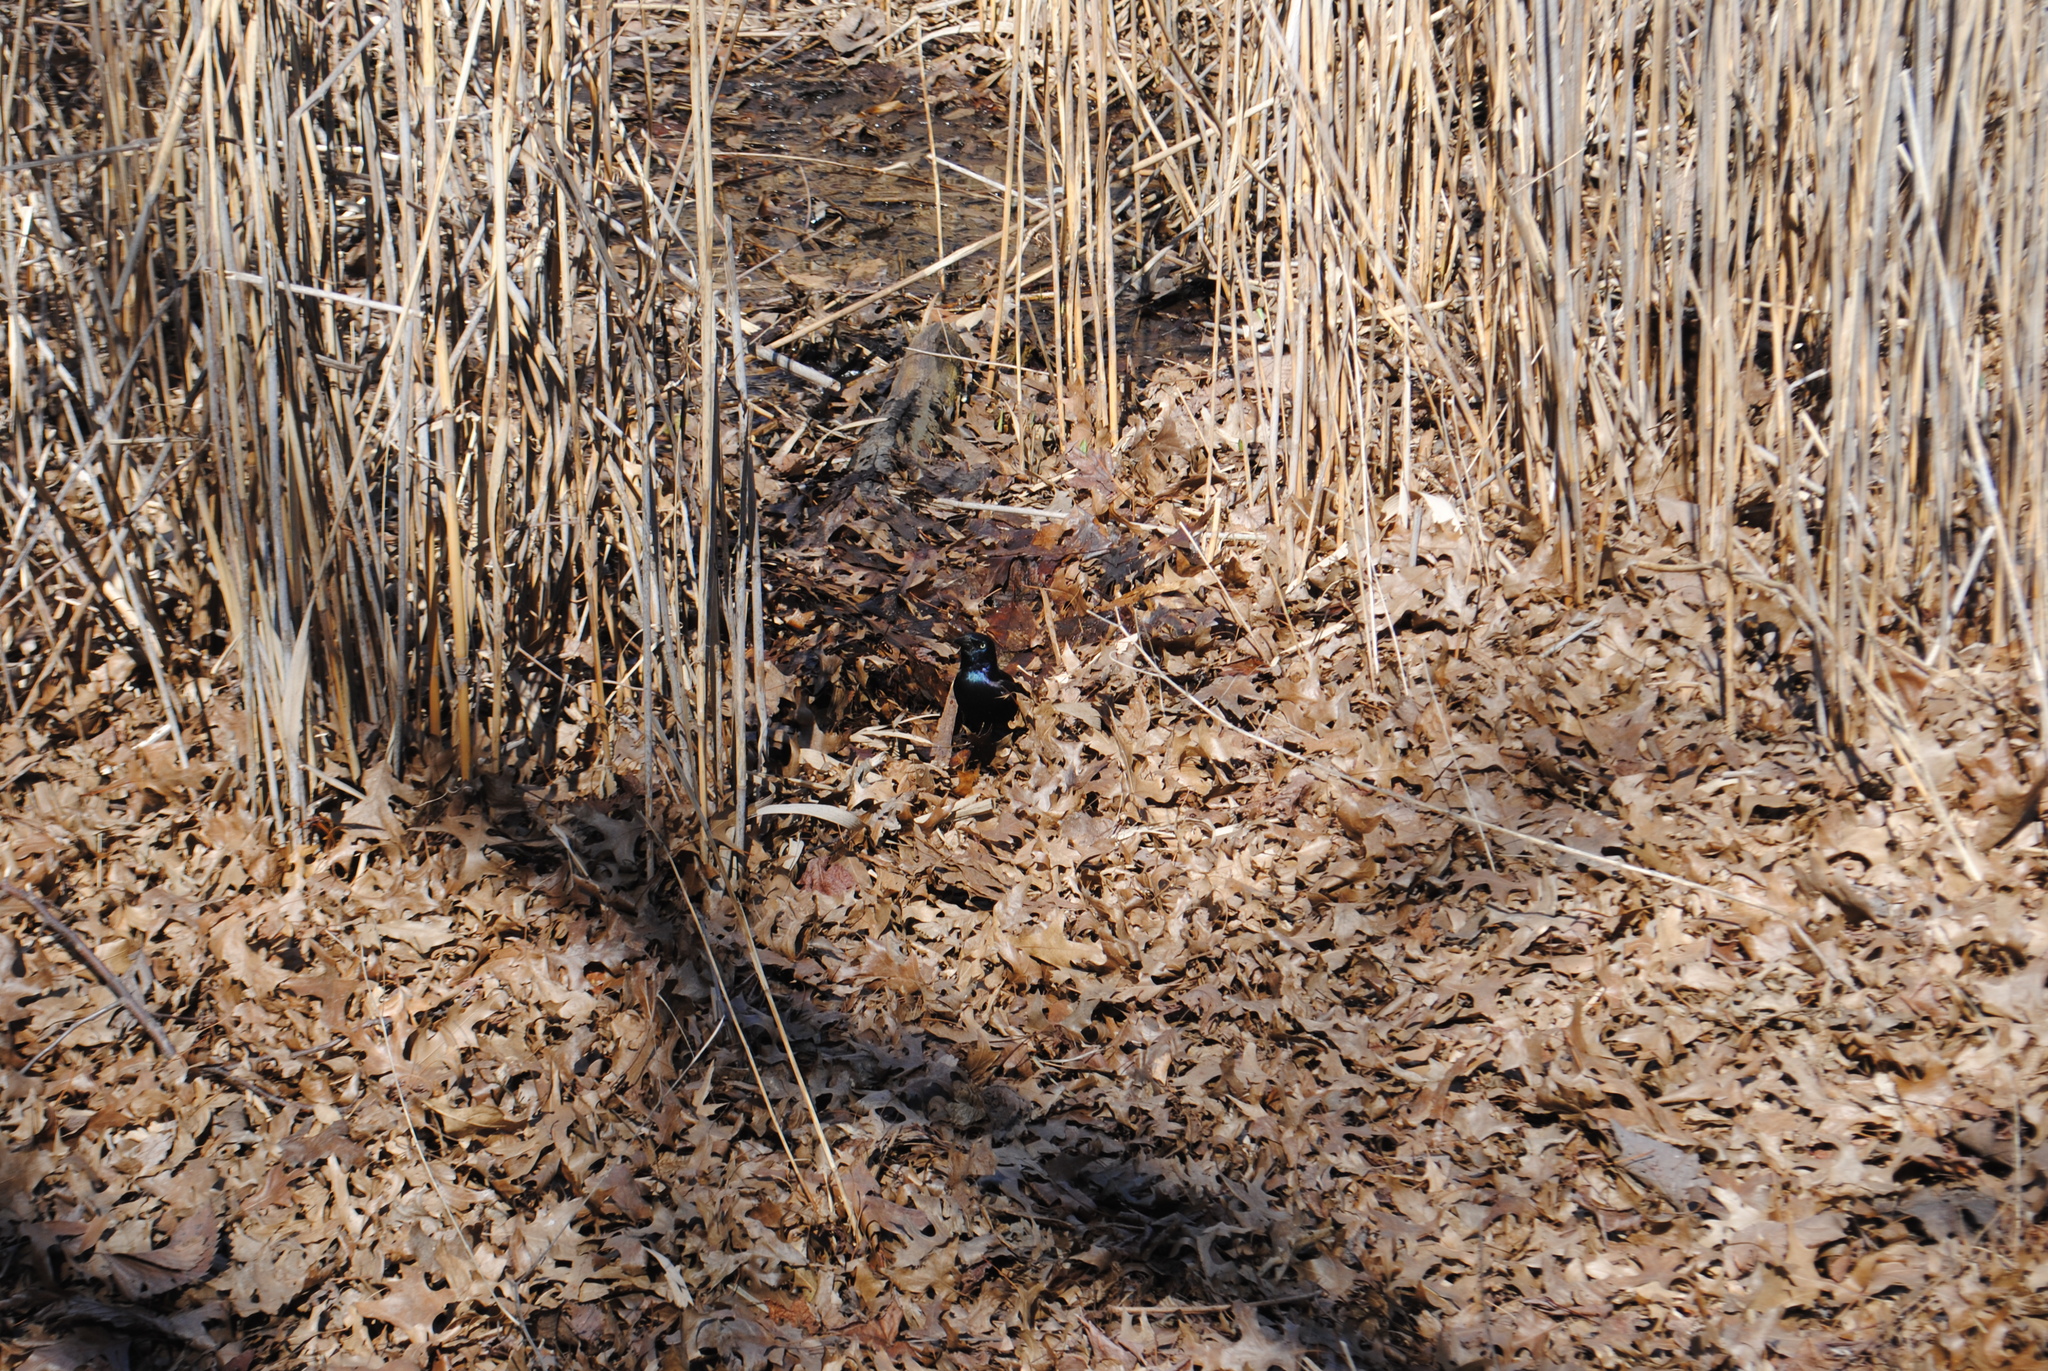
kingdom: Animalia
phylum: Chordata
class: Aves
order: Passeriformes
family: Icteridae
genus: Quiscalus
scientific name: Quiscalus quiscula
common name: Common grackle
